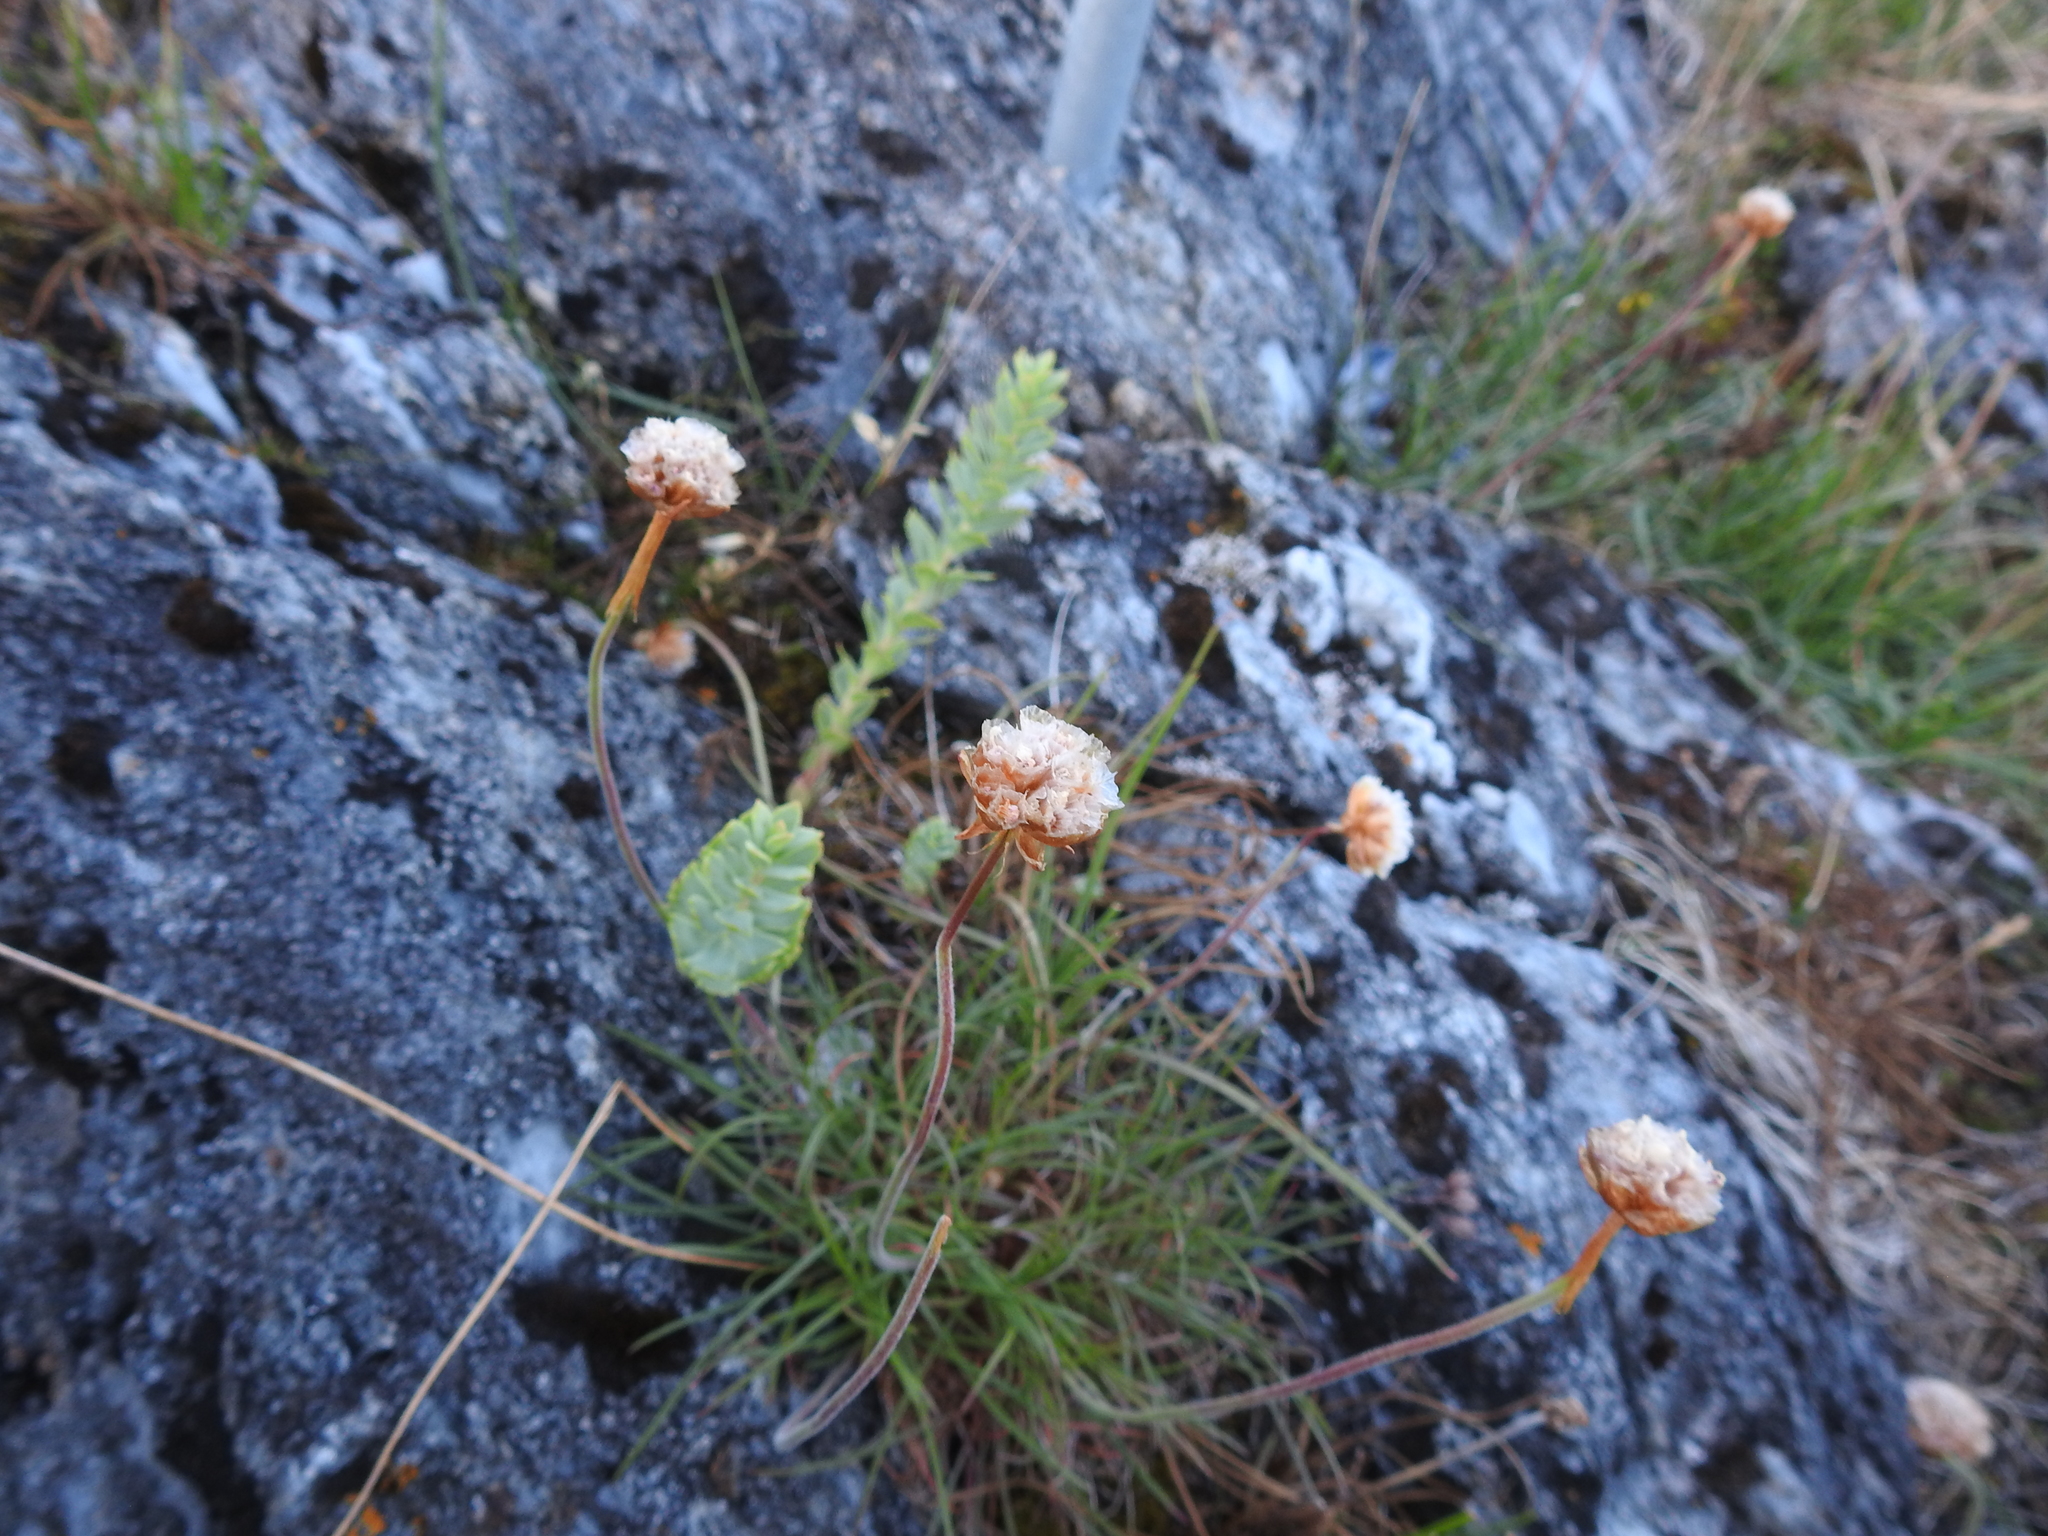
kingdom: Plantae
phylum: Tracheophyta
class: Magnoliopsida
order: Caryophyllales
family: Plumbaginaceae
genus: Armeria
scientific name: Armeria maritima
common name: Thrift
